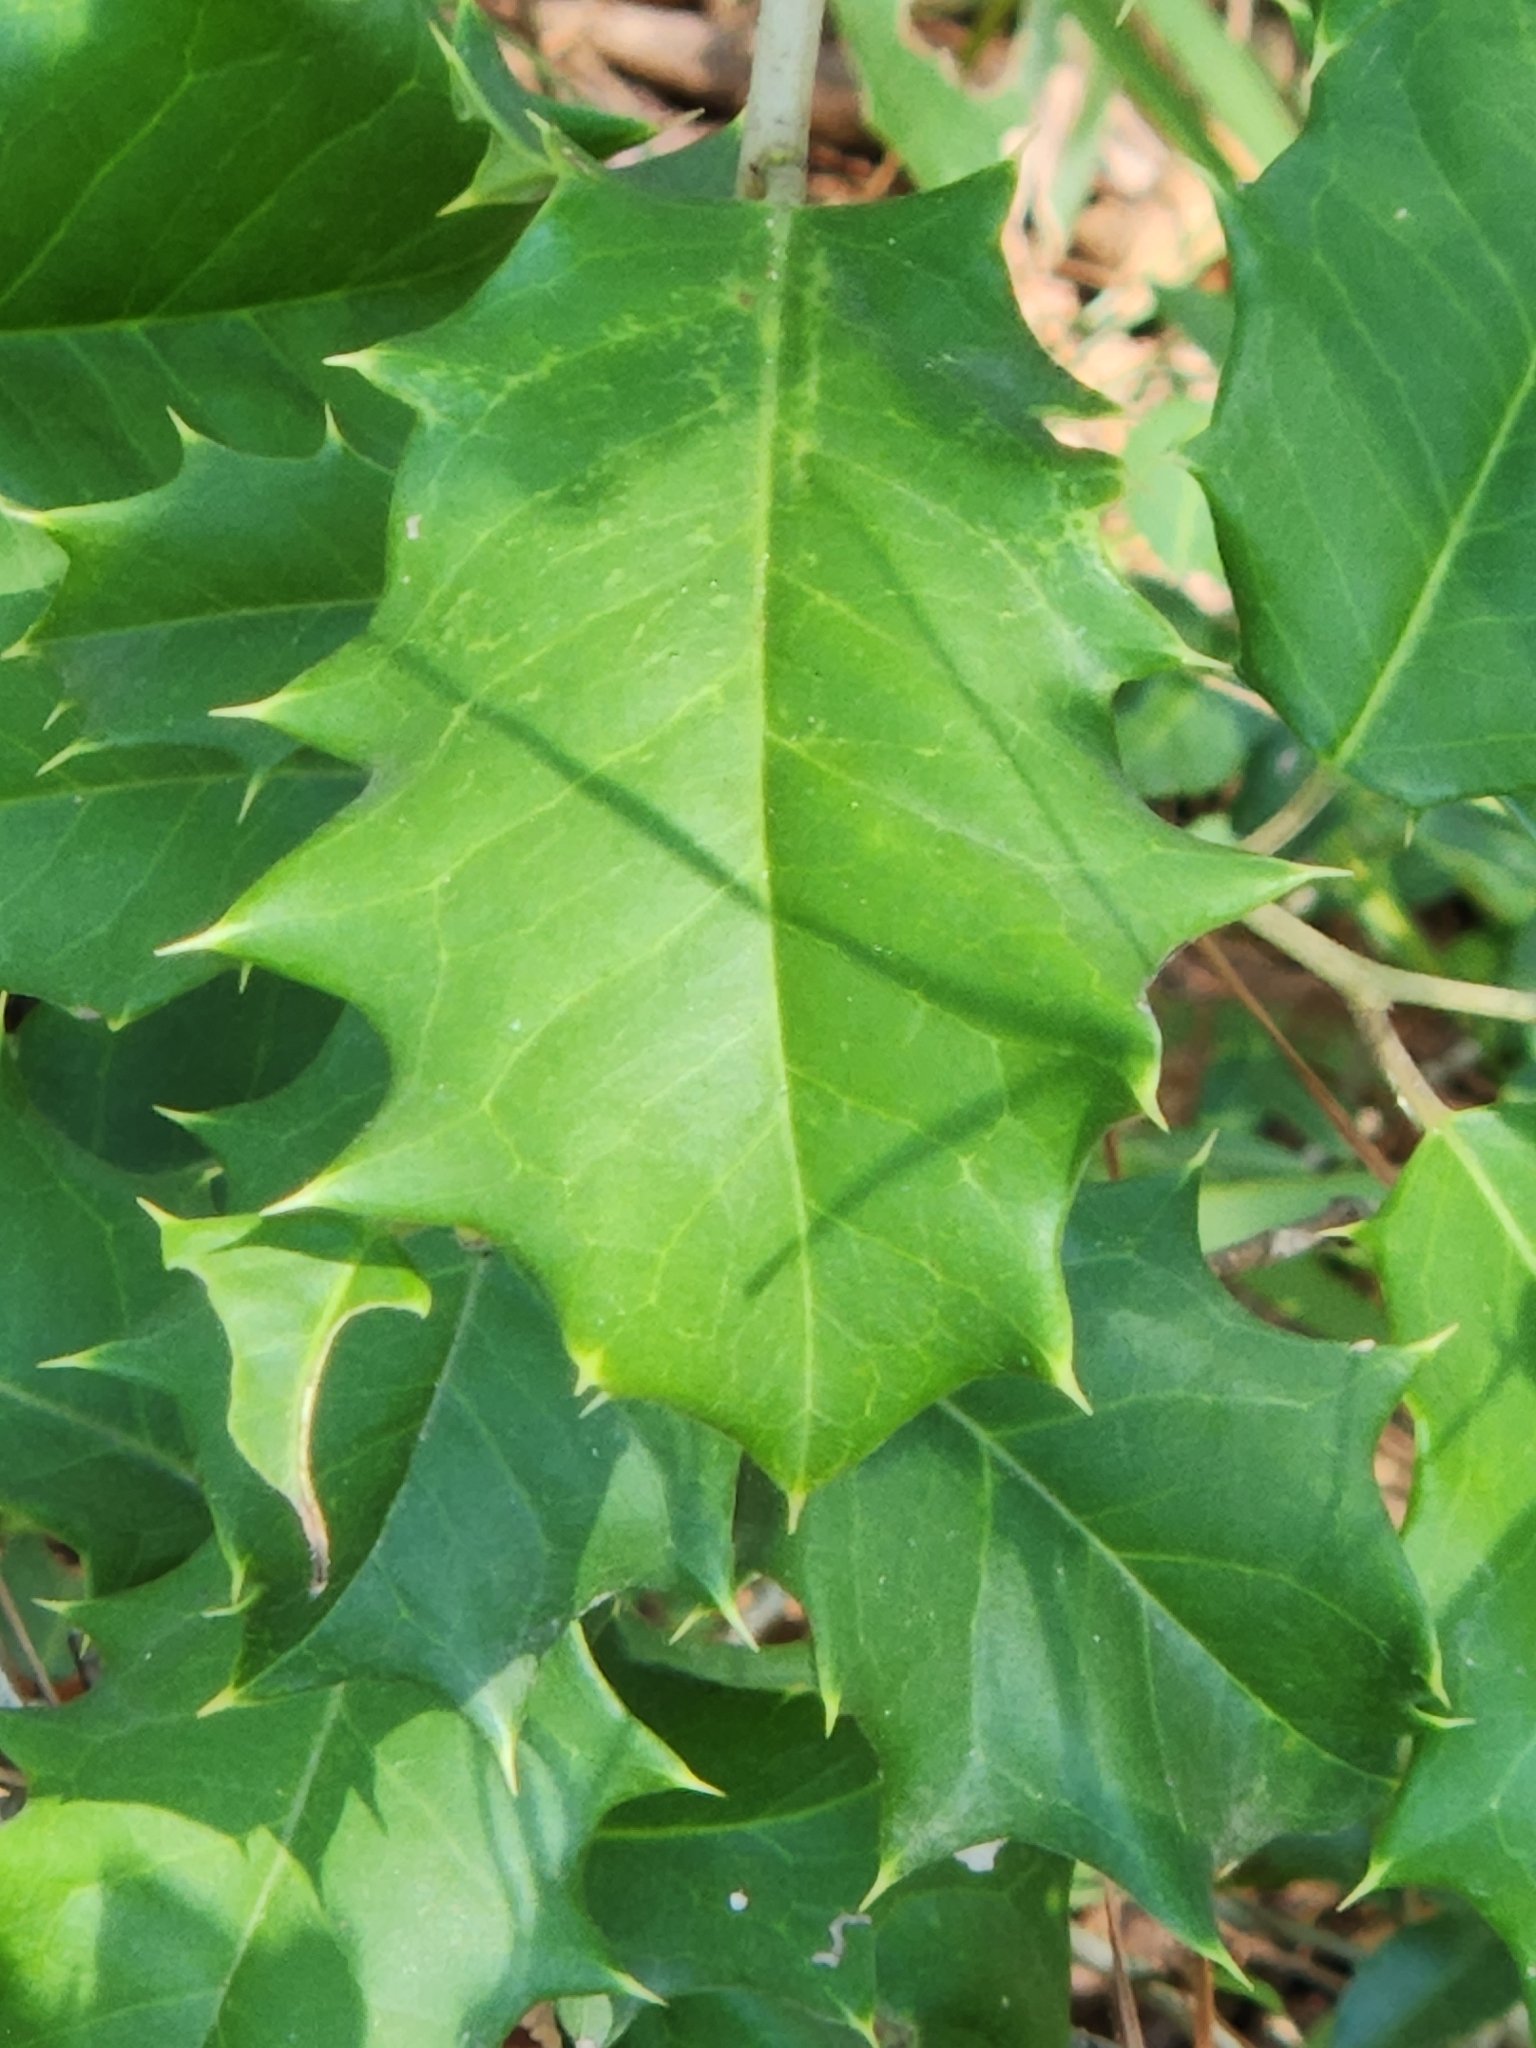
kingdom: Plantae
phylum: Tracheophyta
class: Magnoliopsida
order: Aquifoliales
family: Aquifoliaceae
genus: Ilex
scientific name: Ilex opaca
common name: American holly
